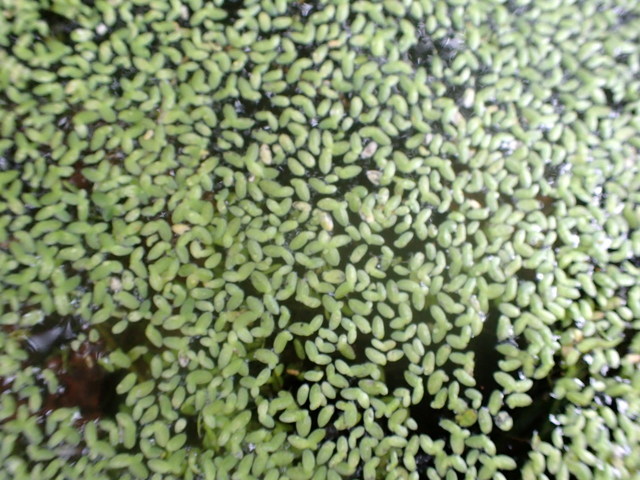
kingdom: Plantae
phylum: Tracheophyta
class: Liliopsida
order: Alismatales
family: Araceae
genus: Lemna
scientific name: Lemna minor
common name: Common duckweed
